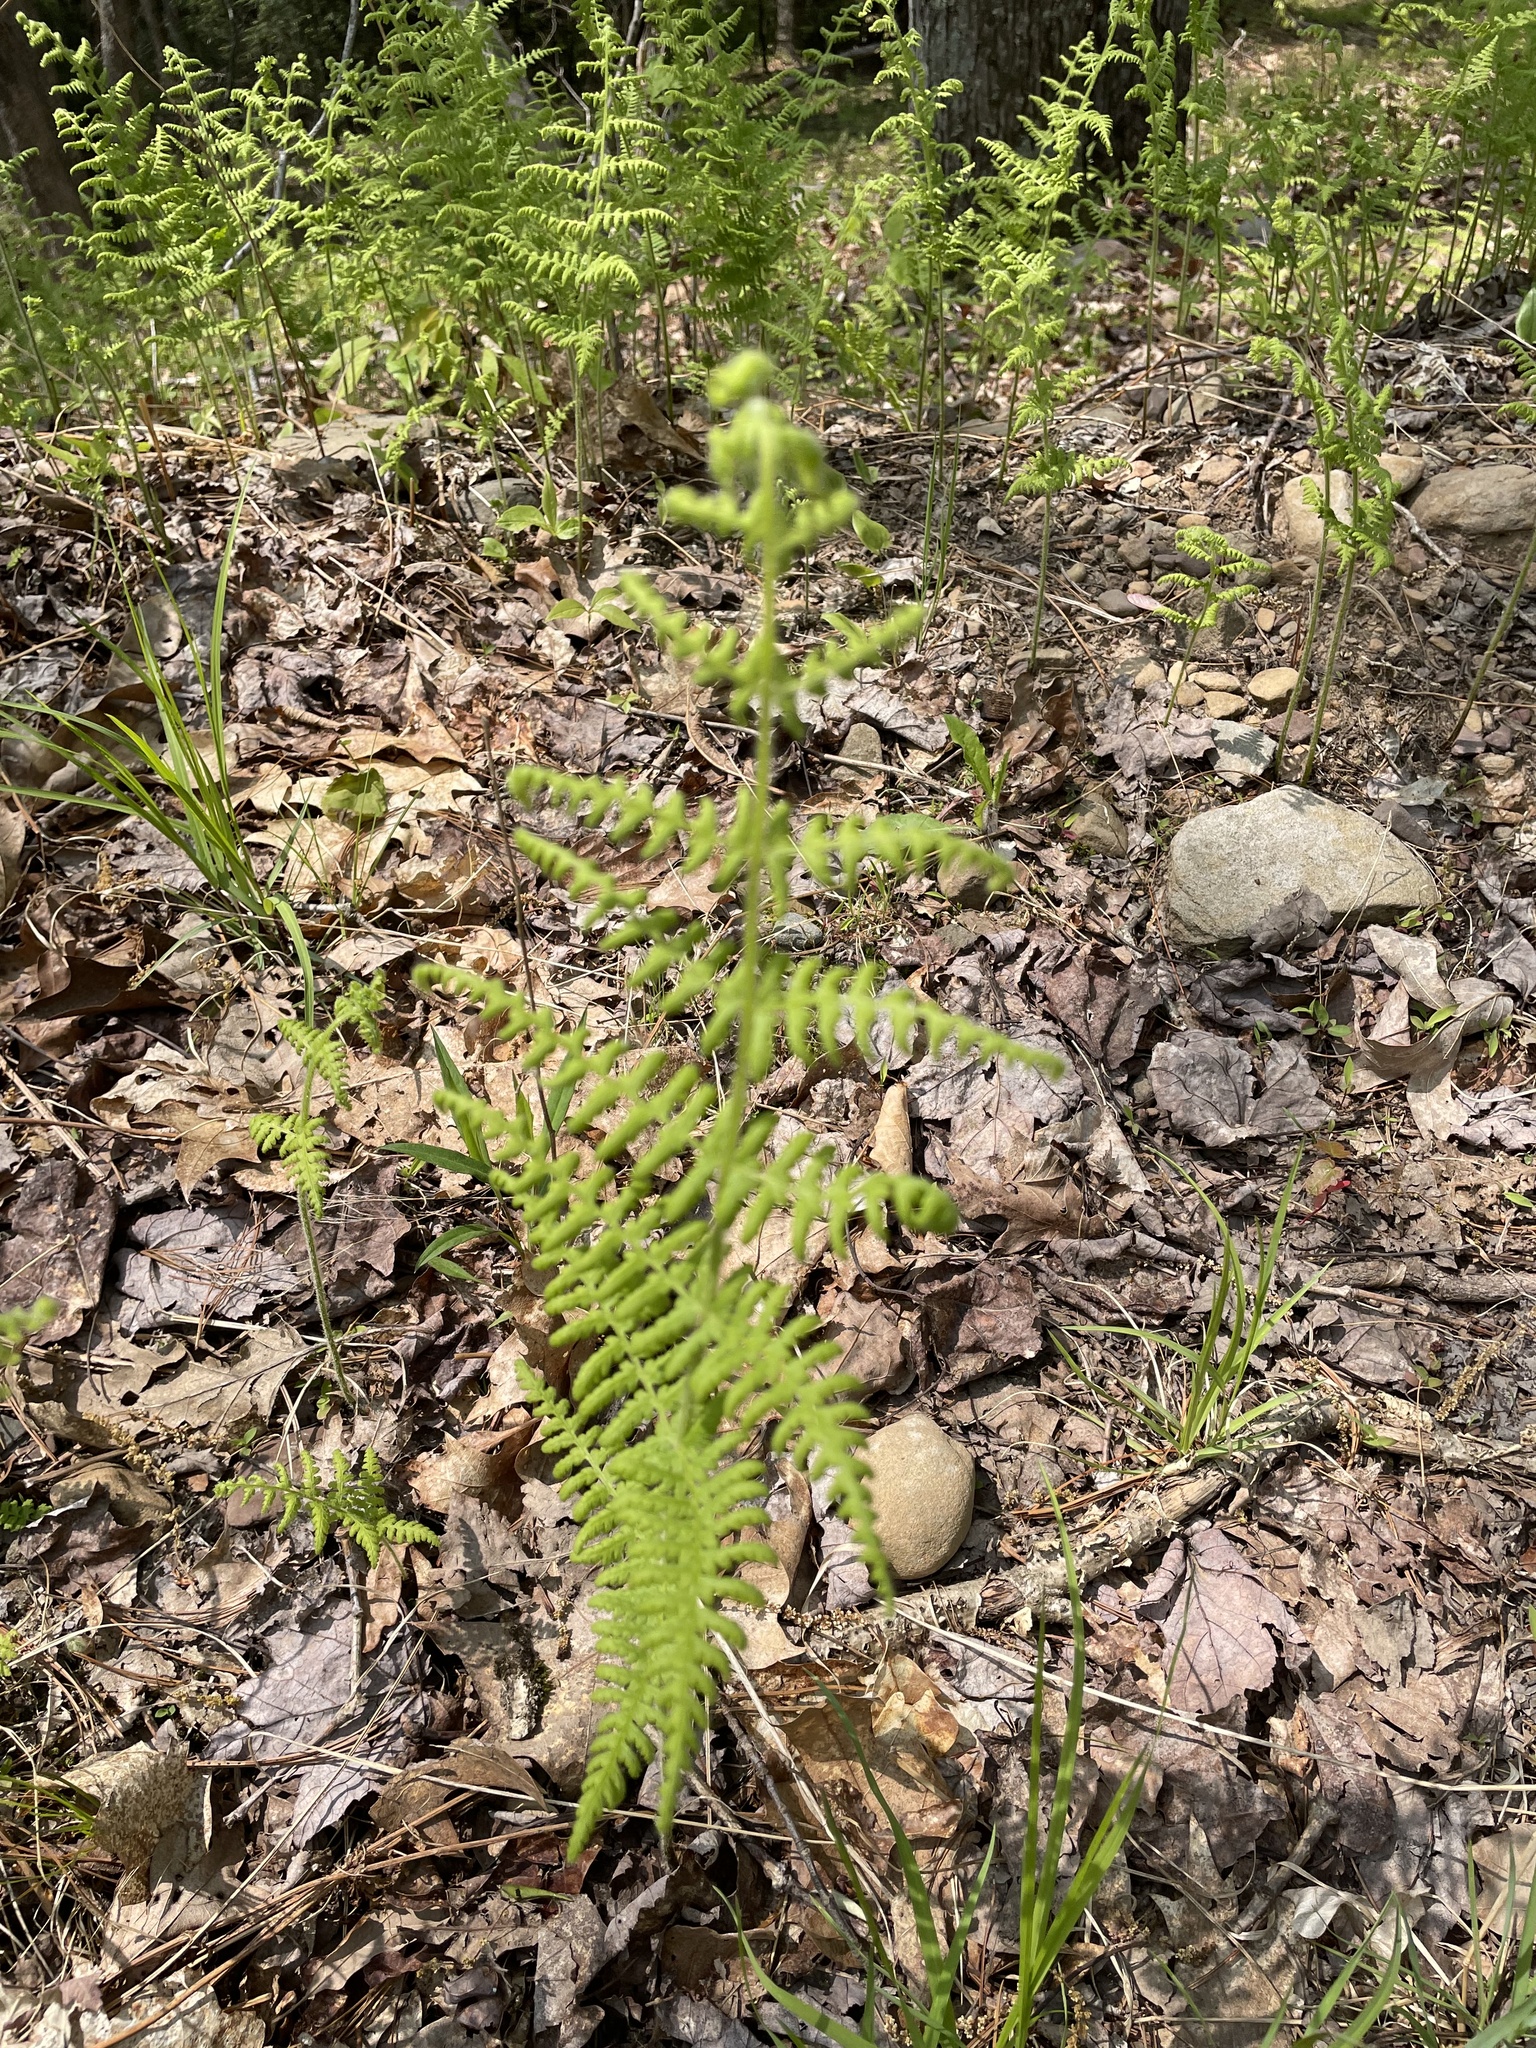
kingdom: Plantae
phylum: Tracheophyta
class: Polypodiopsida
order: Polypodiales
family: Dennstaedtiaceae
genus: Sitobolium
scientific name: Sitobolium punctilobum
